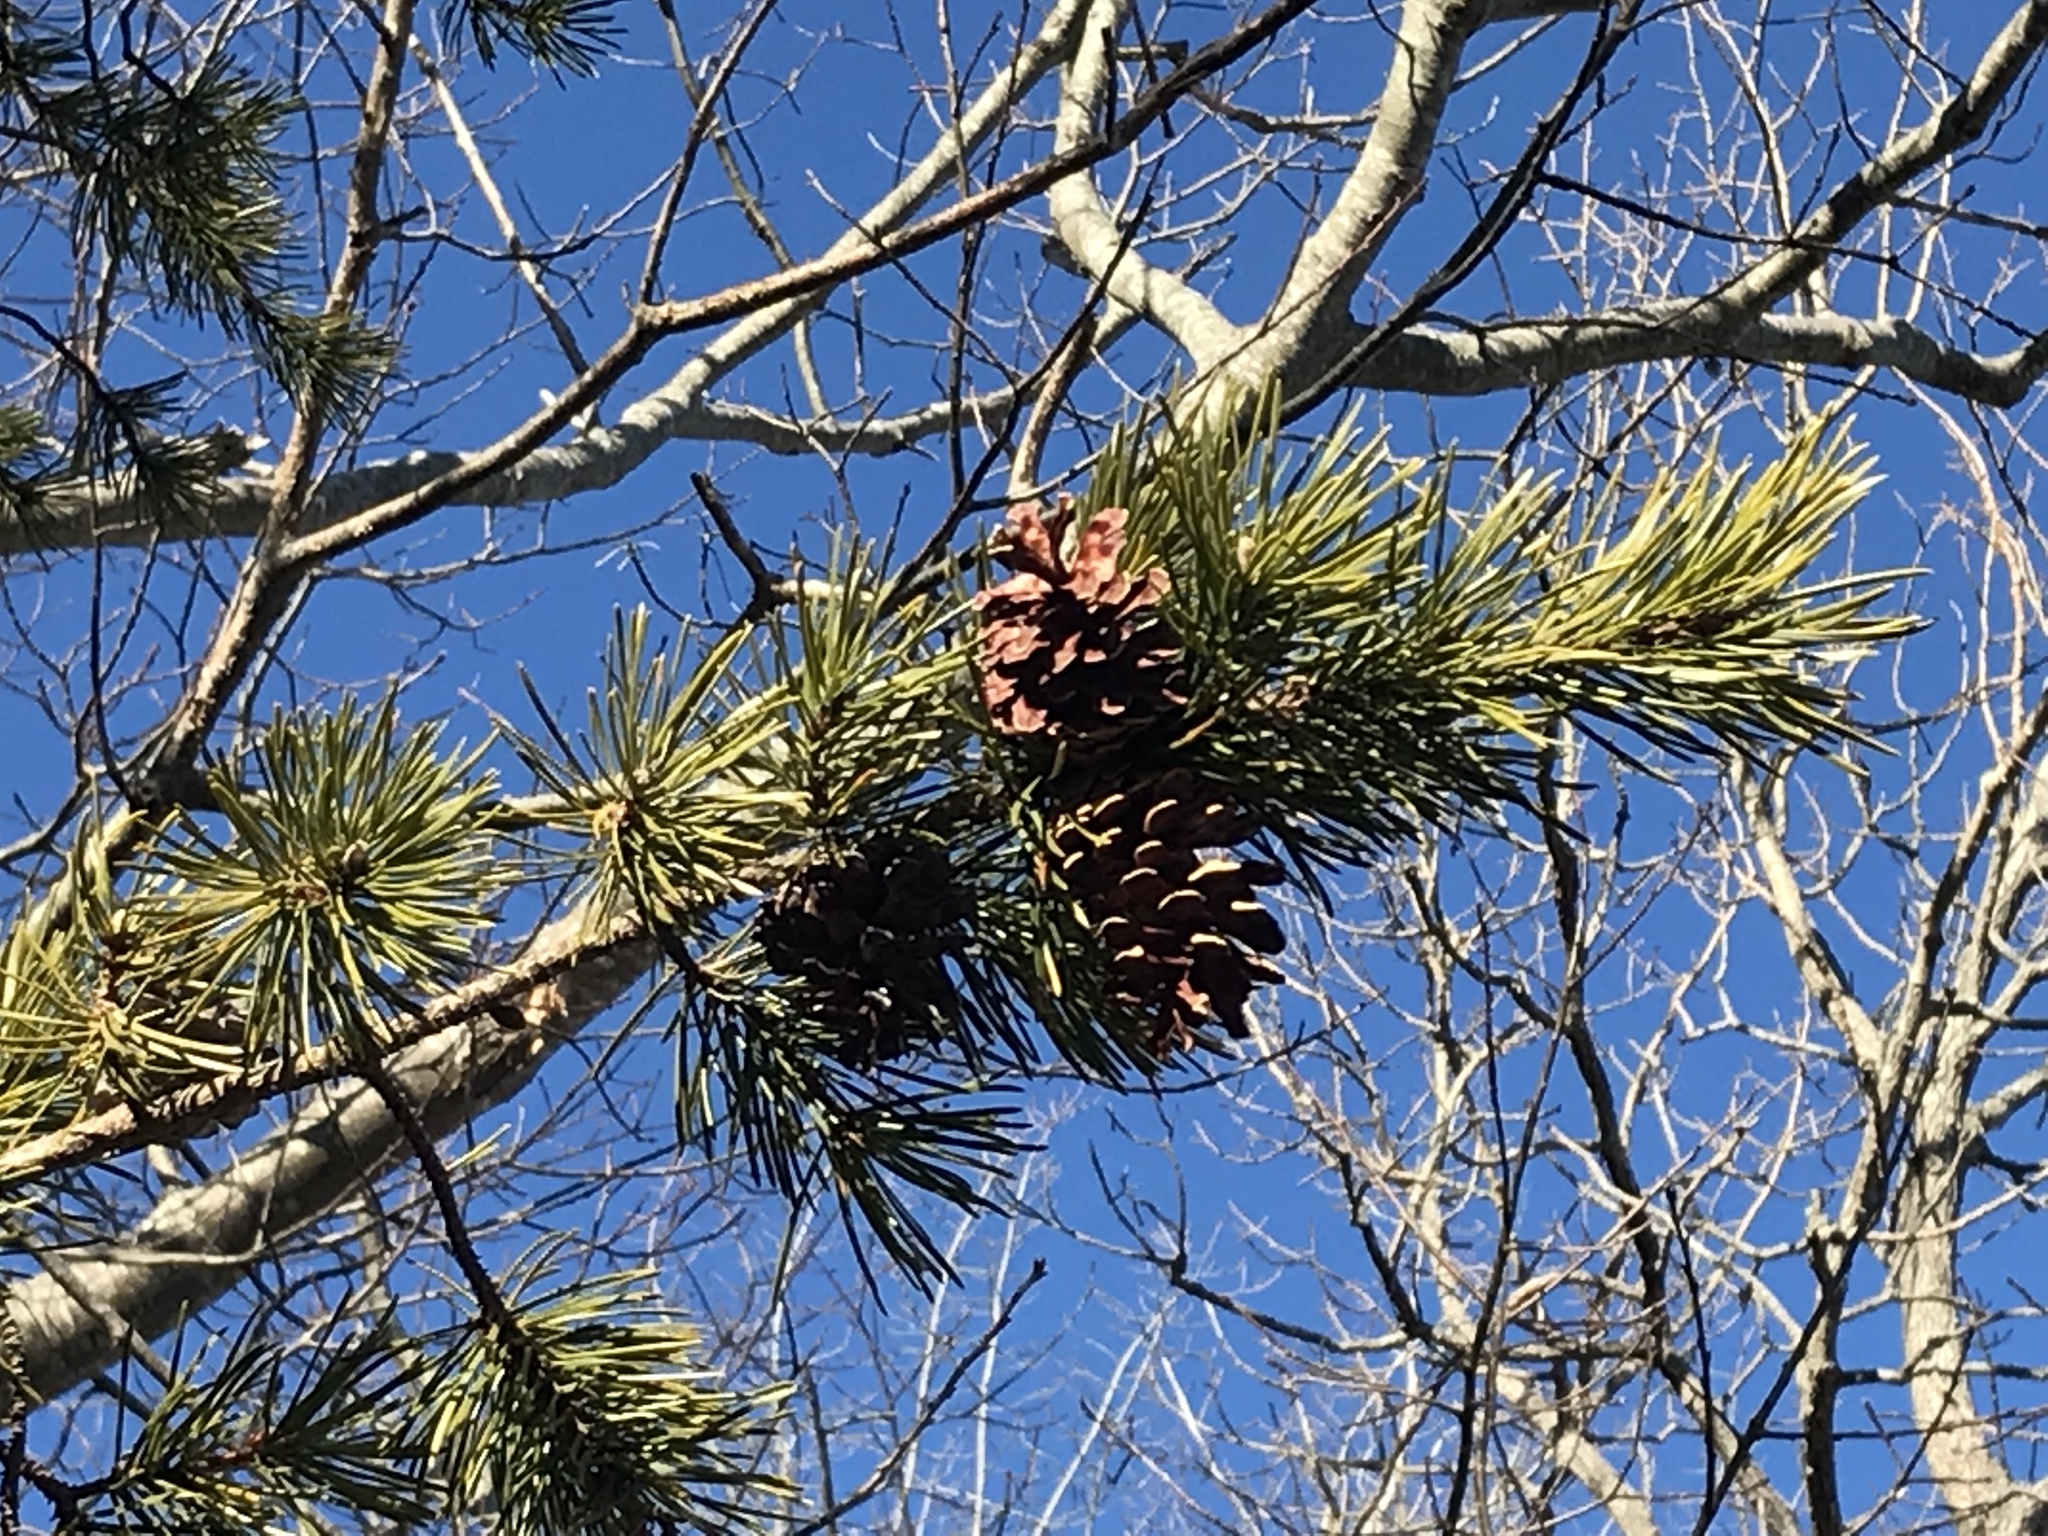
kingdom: Plantae
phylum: Tracheophyta
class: Pinopsida
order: Pinales
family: Pinaceae
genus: Pinus
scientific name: Pinus banksiana
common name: Jack pine
